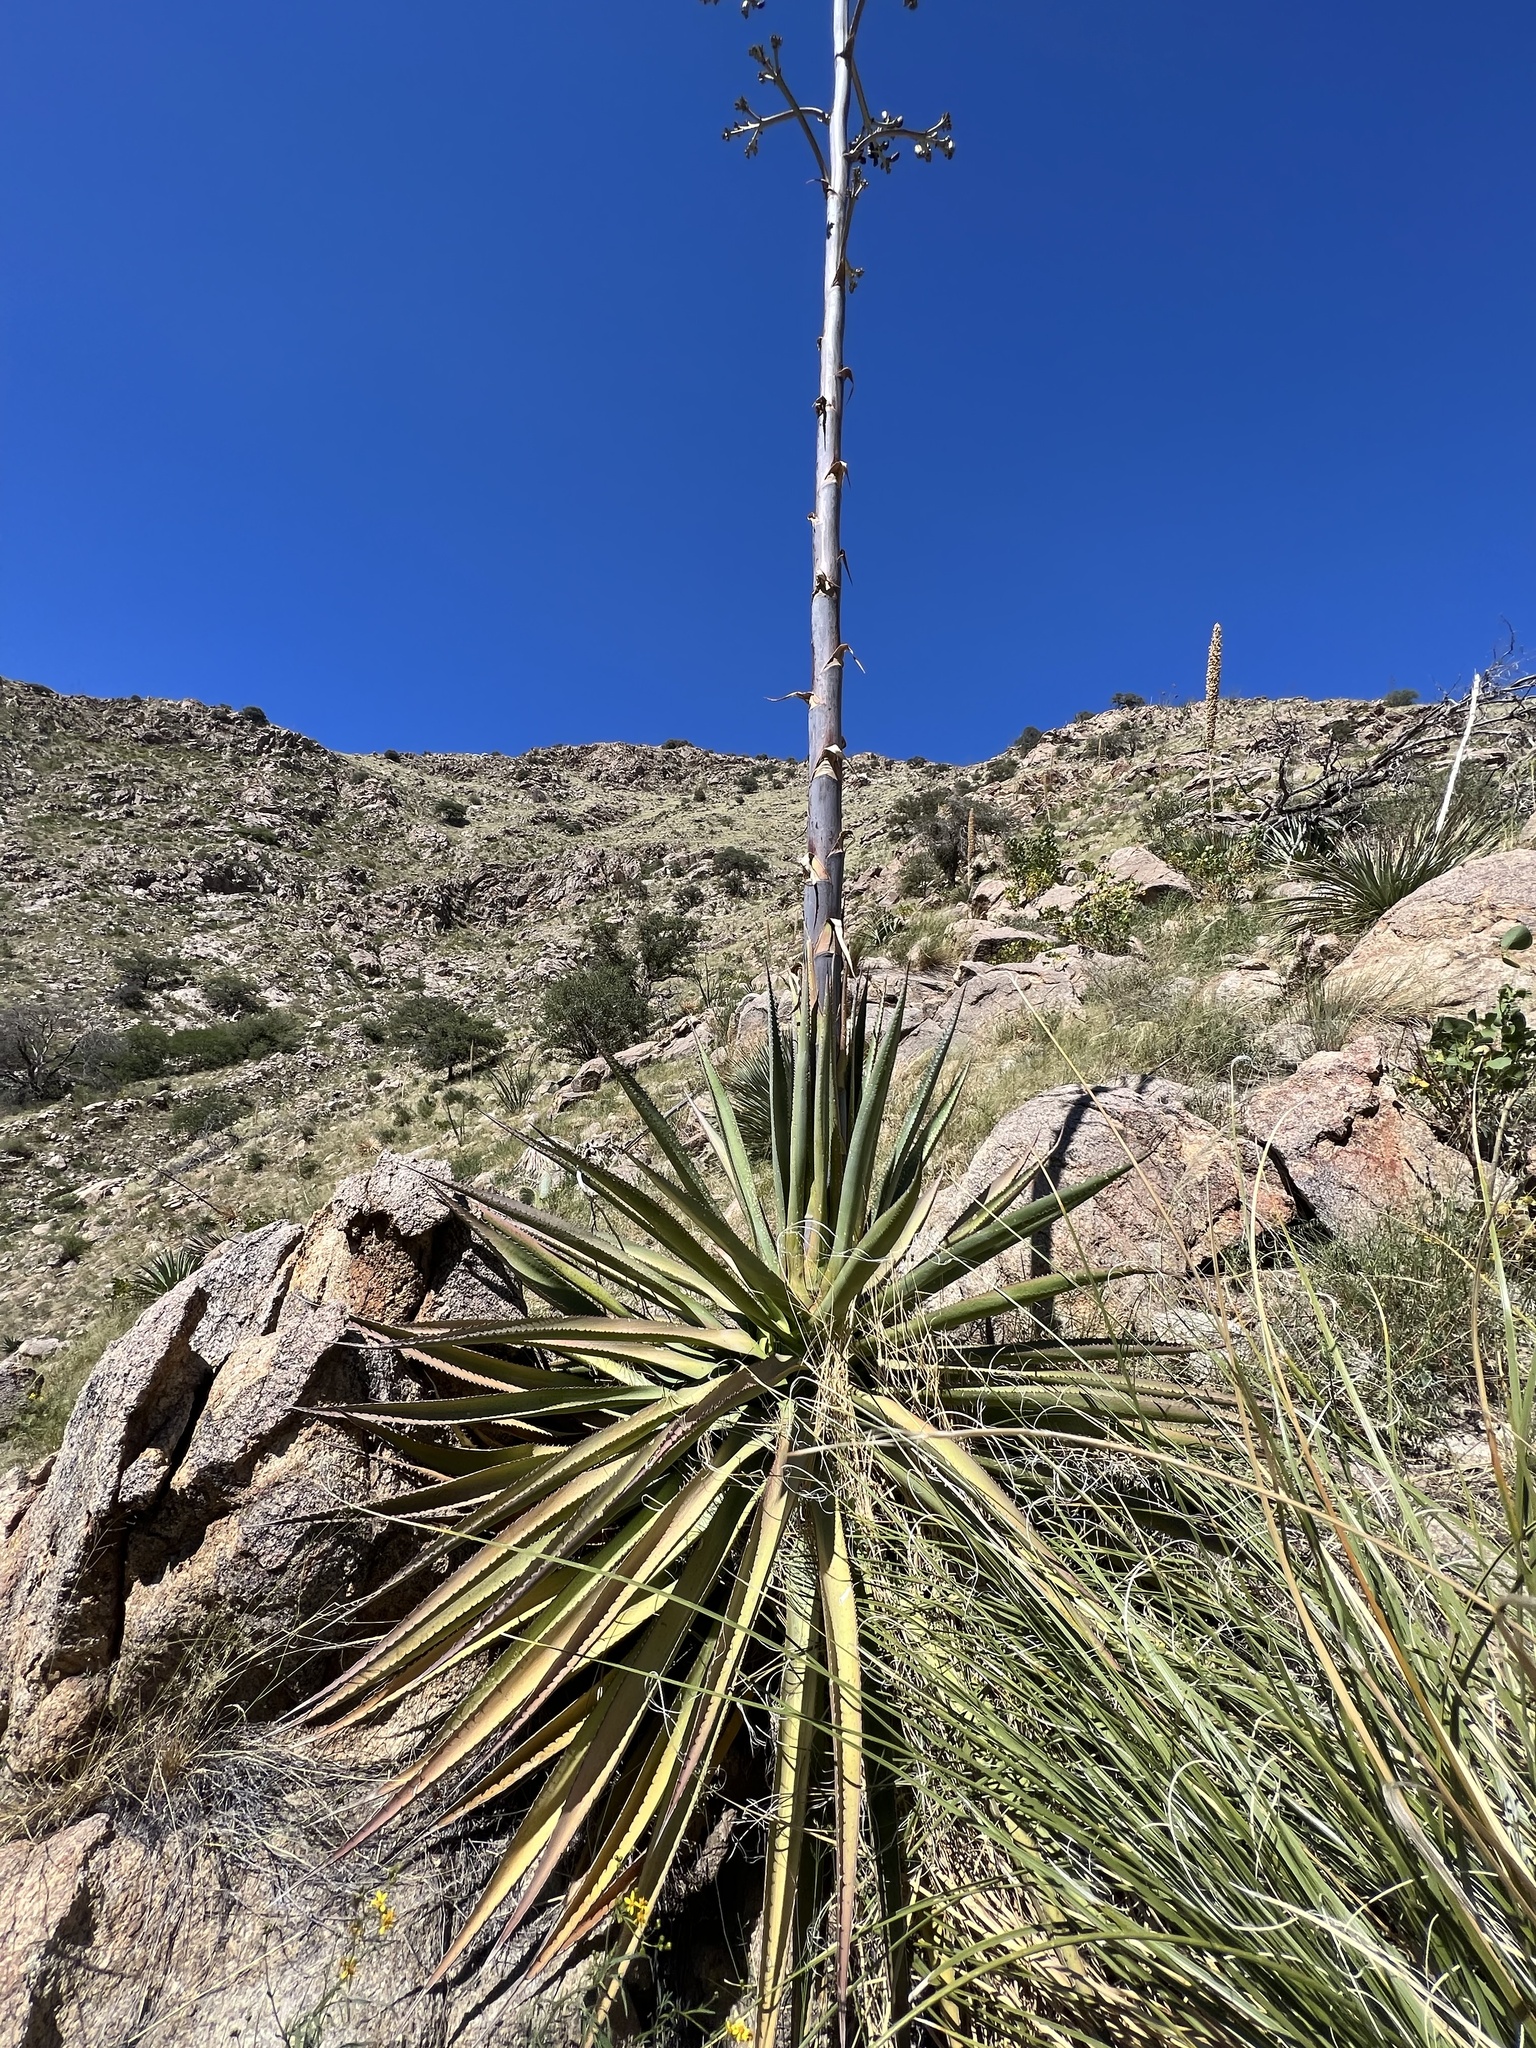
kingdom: Plantae
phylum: Tracheophyta
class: Liliopsida
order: Asparagales
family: Asparagaceae
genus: Agave
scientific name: Agave palmeri
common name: Palmer agave
